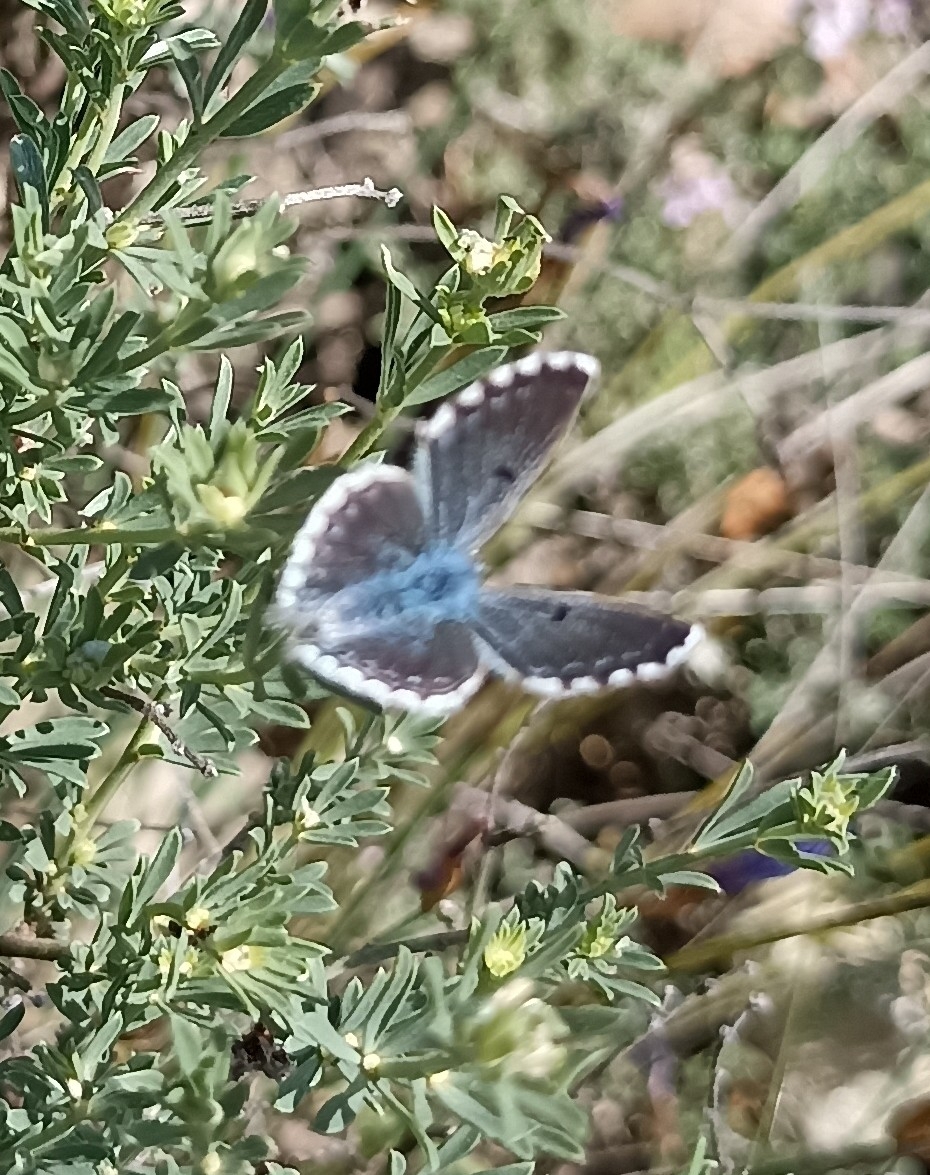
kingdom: Animalia
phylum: Arthropoda
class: Insecta
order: Lepidoptera
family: Lycaenidae
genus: Pseudophilotes
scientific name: Pseudophilotes baton
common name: Baton blue
